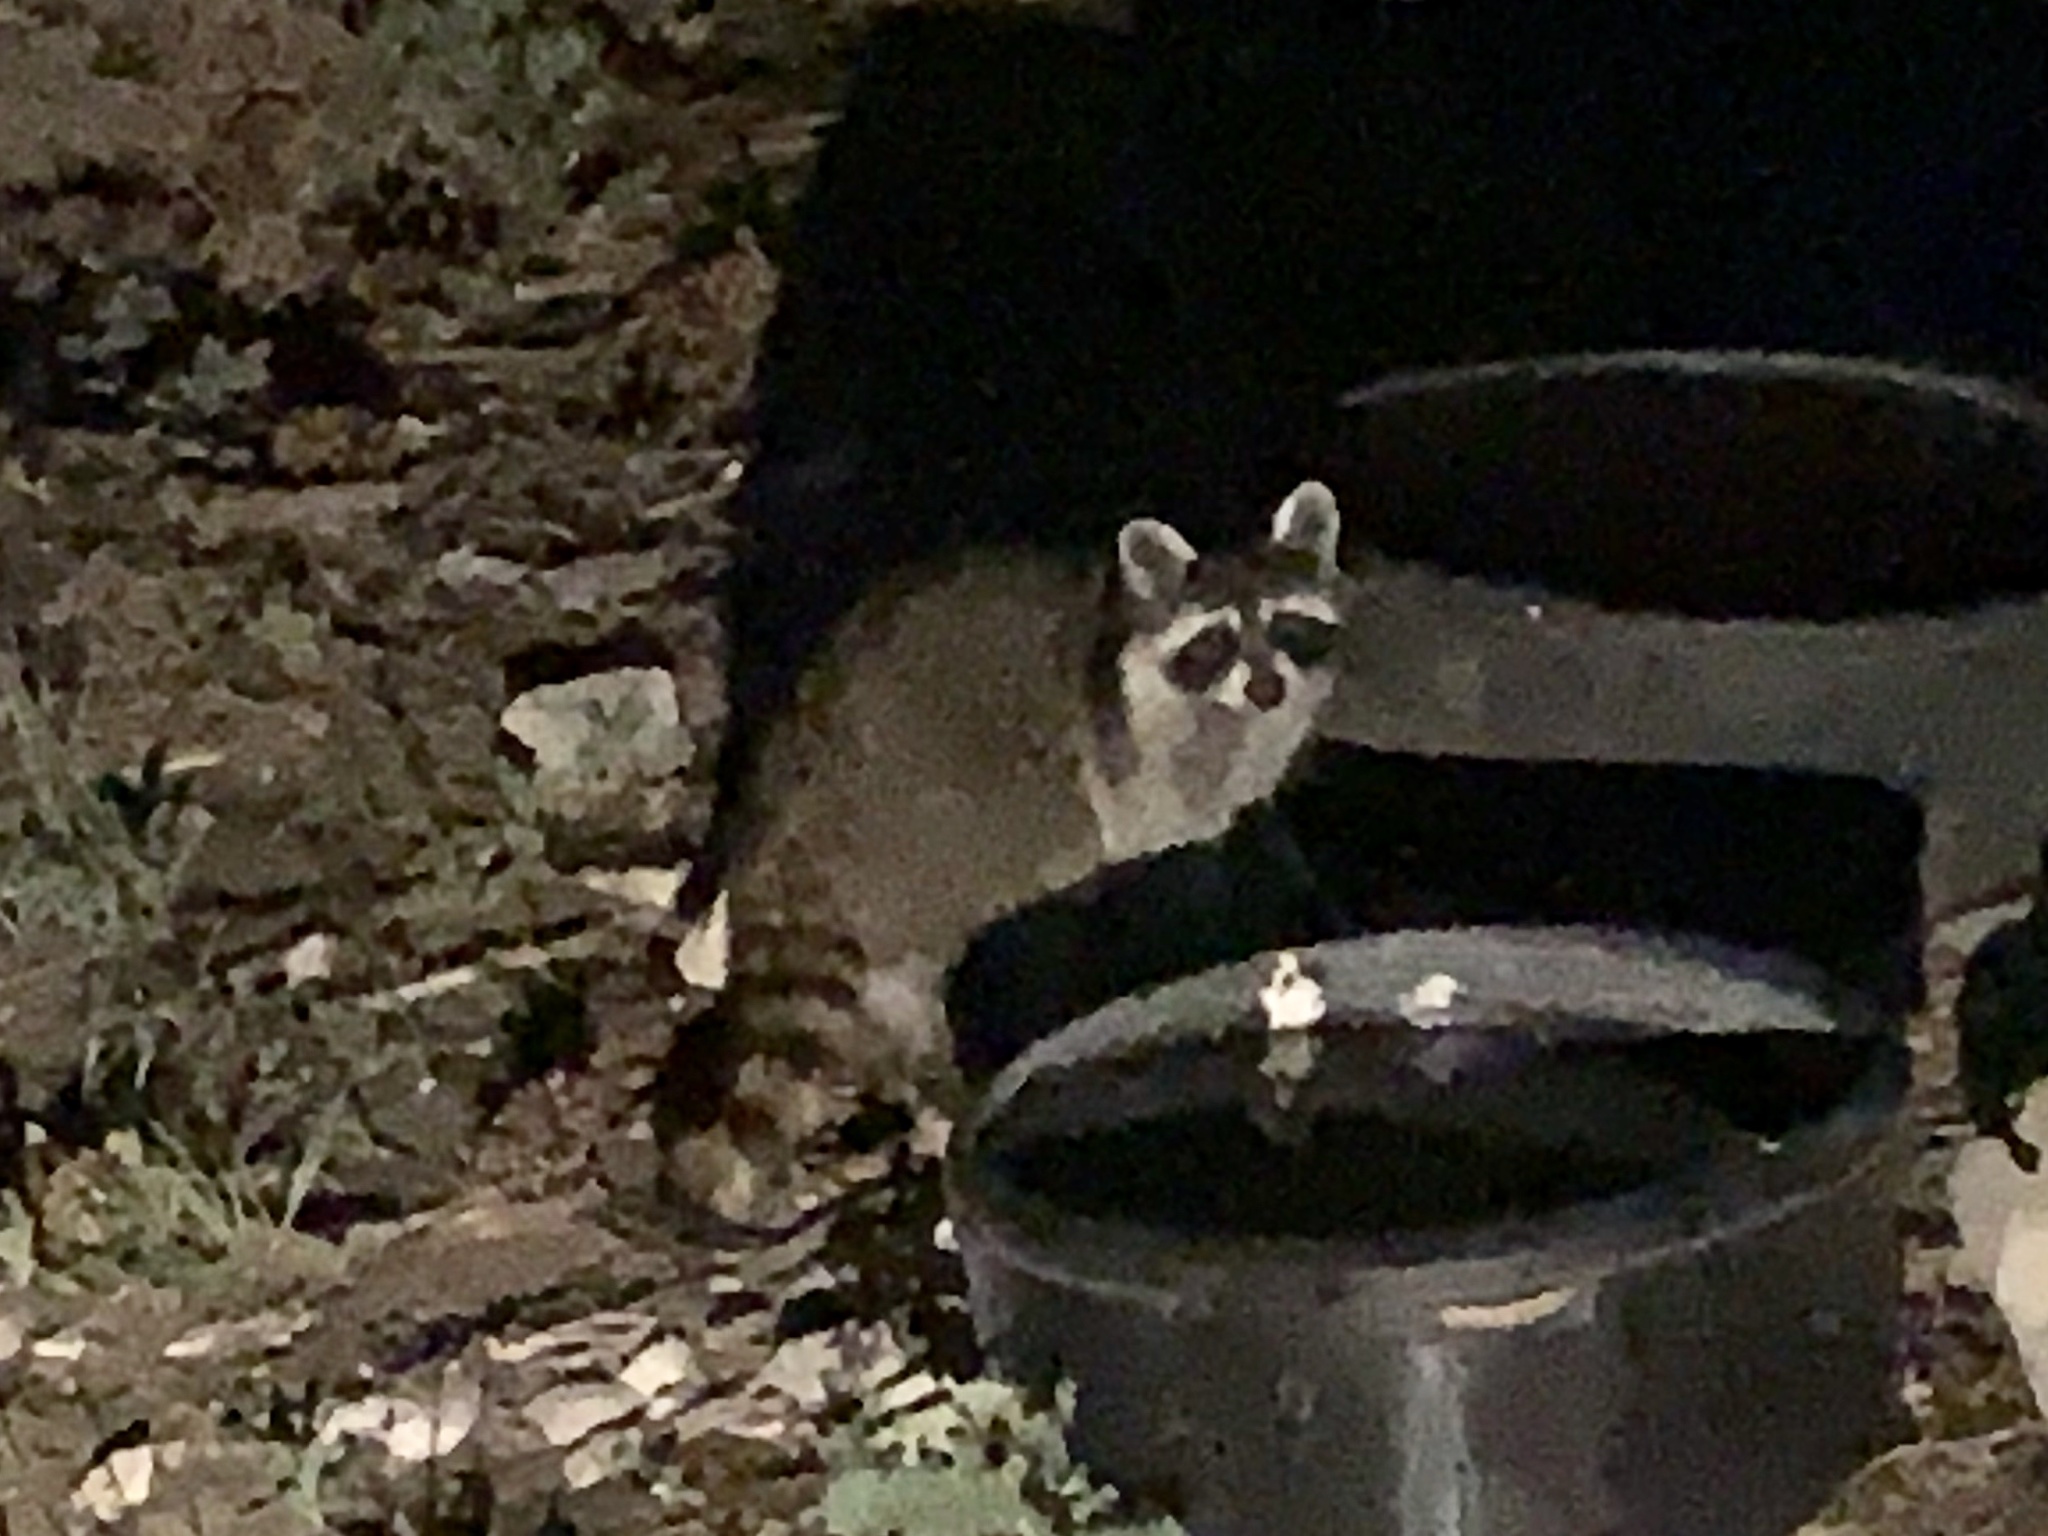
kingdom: Animalia
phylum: Chordata
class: Mammalia
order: Carnivora
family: Procyonidae
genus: Procyon
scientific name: Procyon lotor
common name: Raccoon
